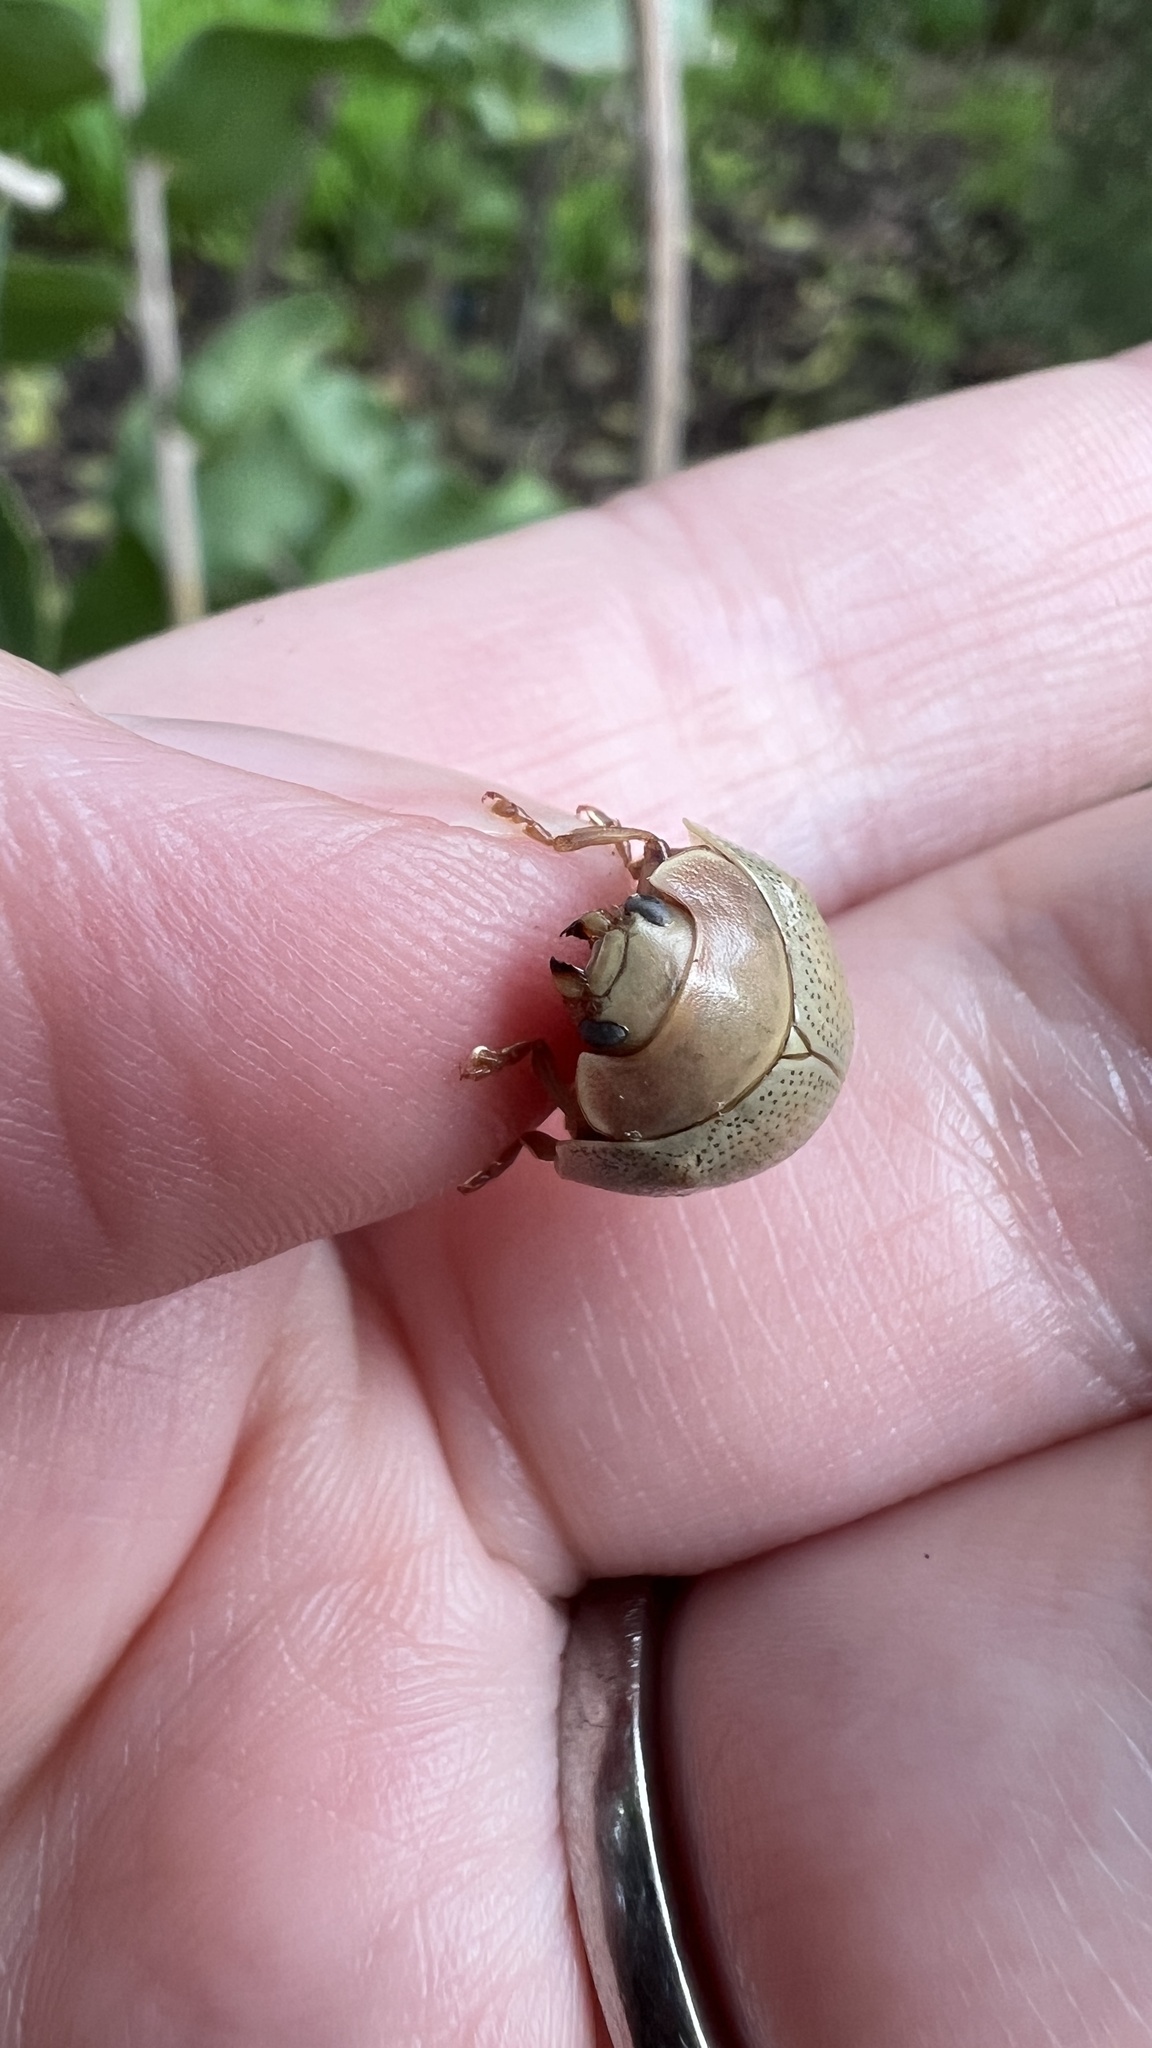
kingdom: Animalia
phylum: Arthropoda
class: Insecta
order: Coleoptera
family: Chrysomelidae
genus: Paropsisterna
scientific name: Paropsisterna
